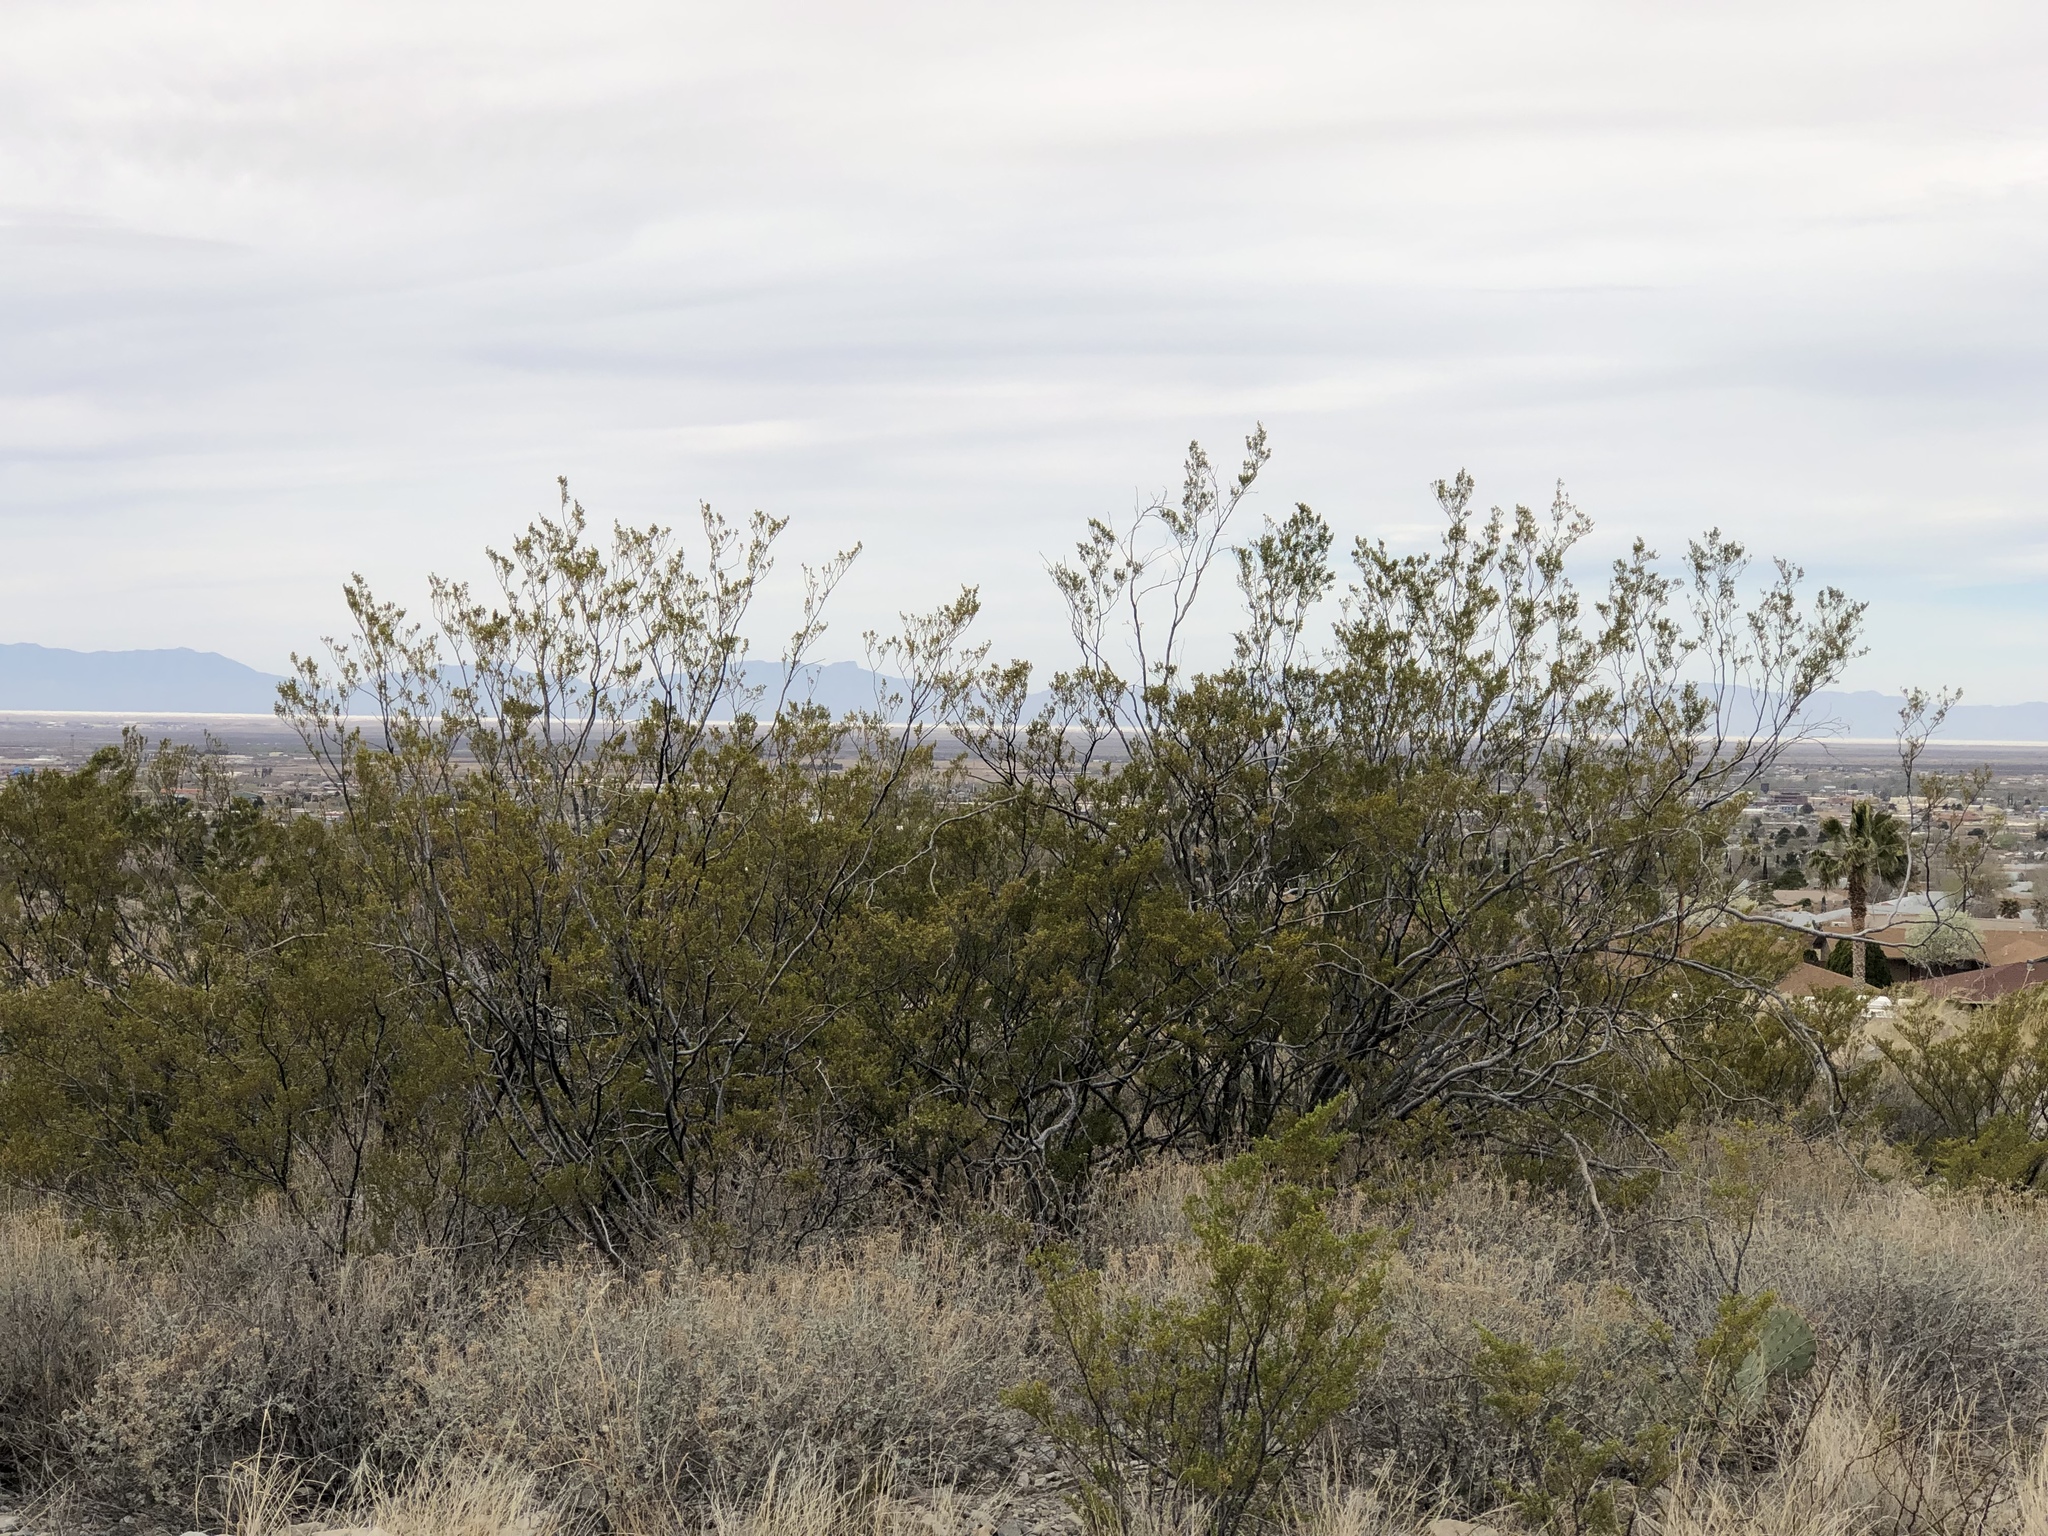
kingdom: Plantae
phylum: Tracheophyta
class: Magnoliopsida
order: Zygophyllales
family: Zygophyllaceae
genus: Larrea
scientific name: Larrea tridentata
